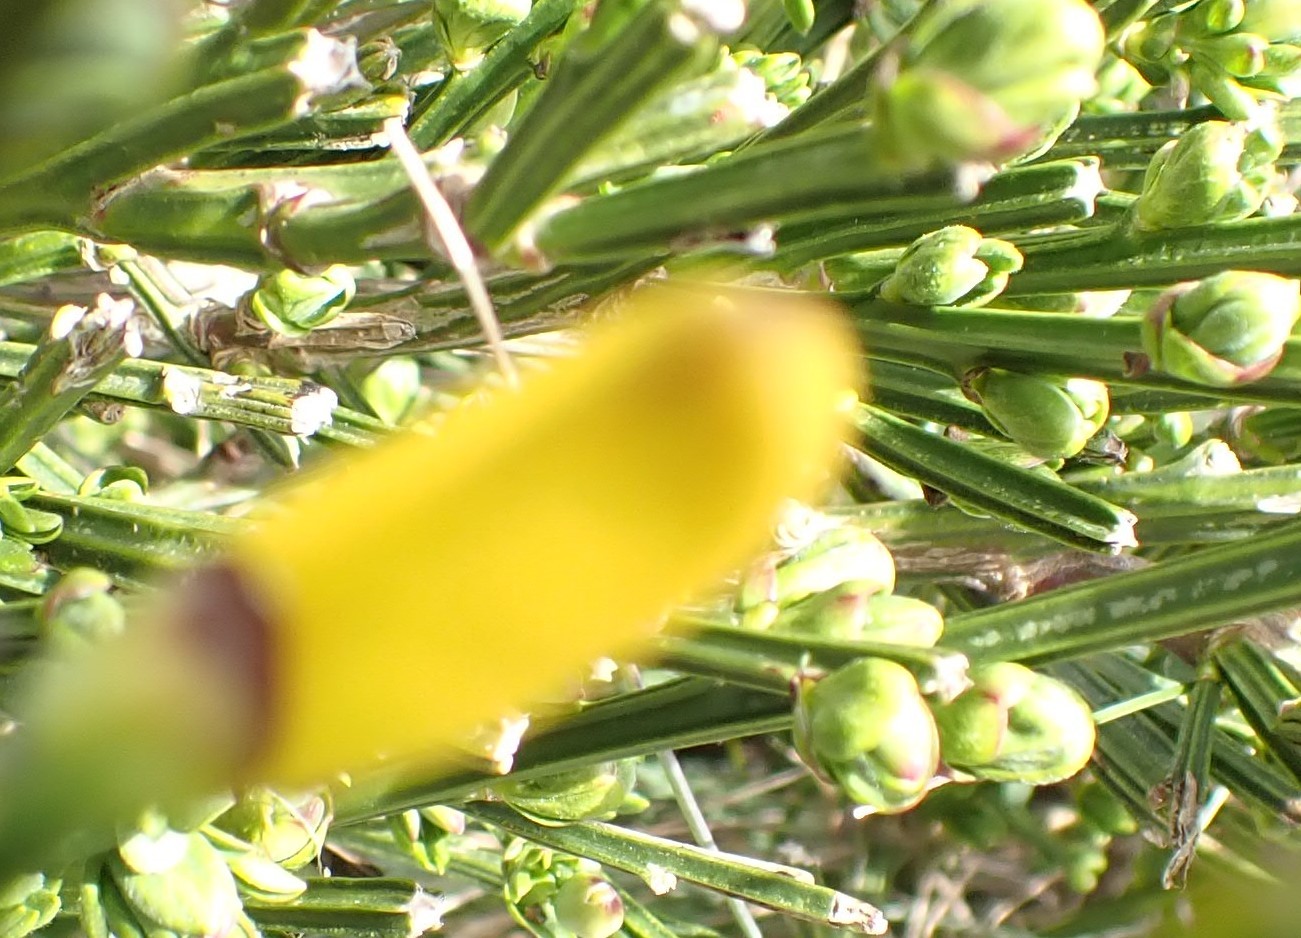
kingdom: Plantae
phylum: Tracheophyta
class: Magnoliopsida
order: Fabales
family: Fabaceae
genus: Cytisus
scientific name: Cytisus scoparius
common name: Scotch broom
